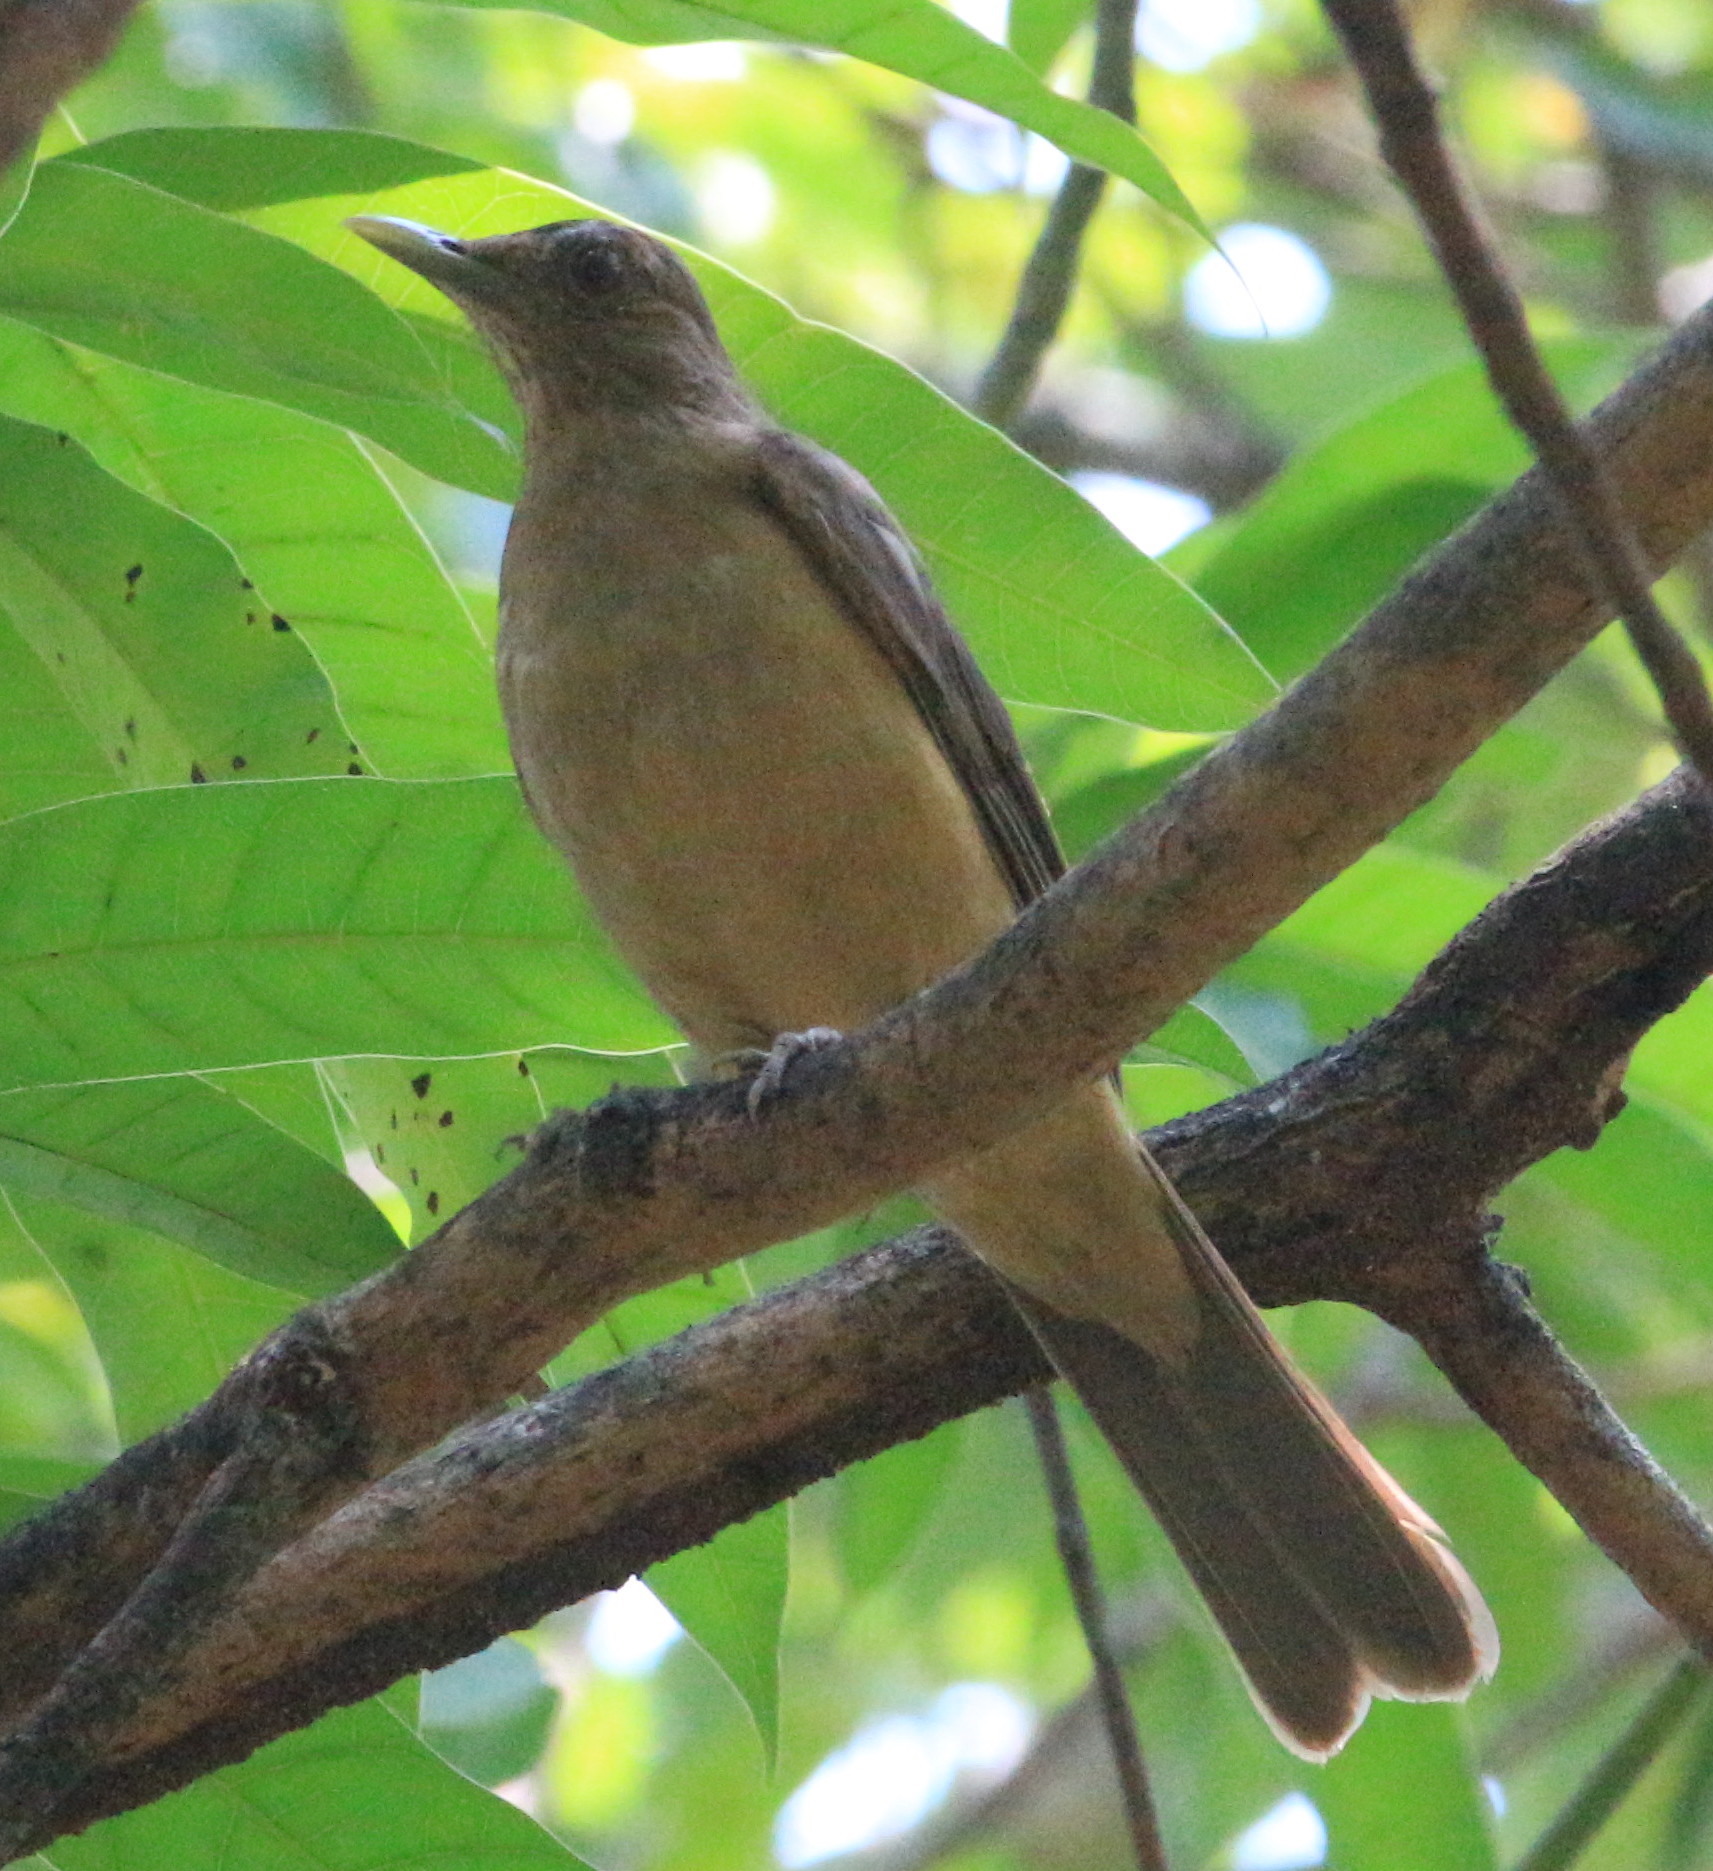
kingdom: Animalia
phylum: Chordata
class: Aves
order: Passeriformes
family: Turdidae
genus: Turdus
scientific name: Turdus grayi
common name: Clay-colored thrush
